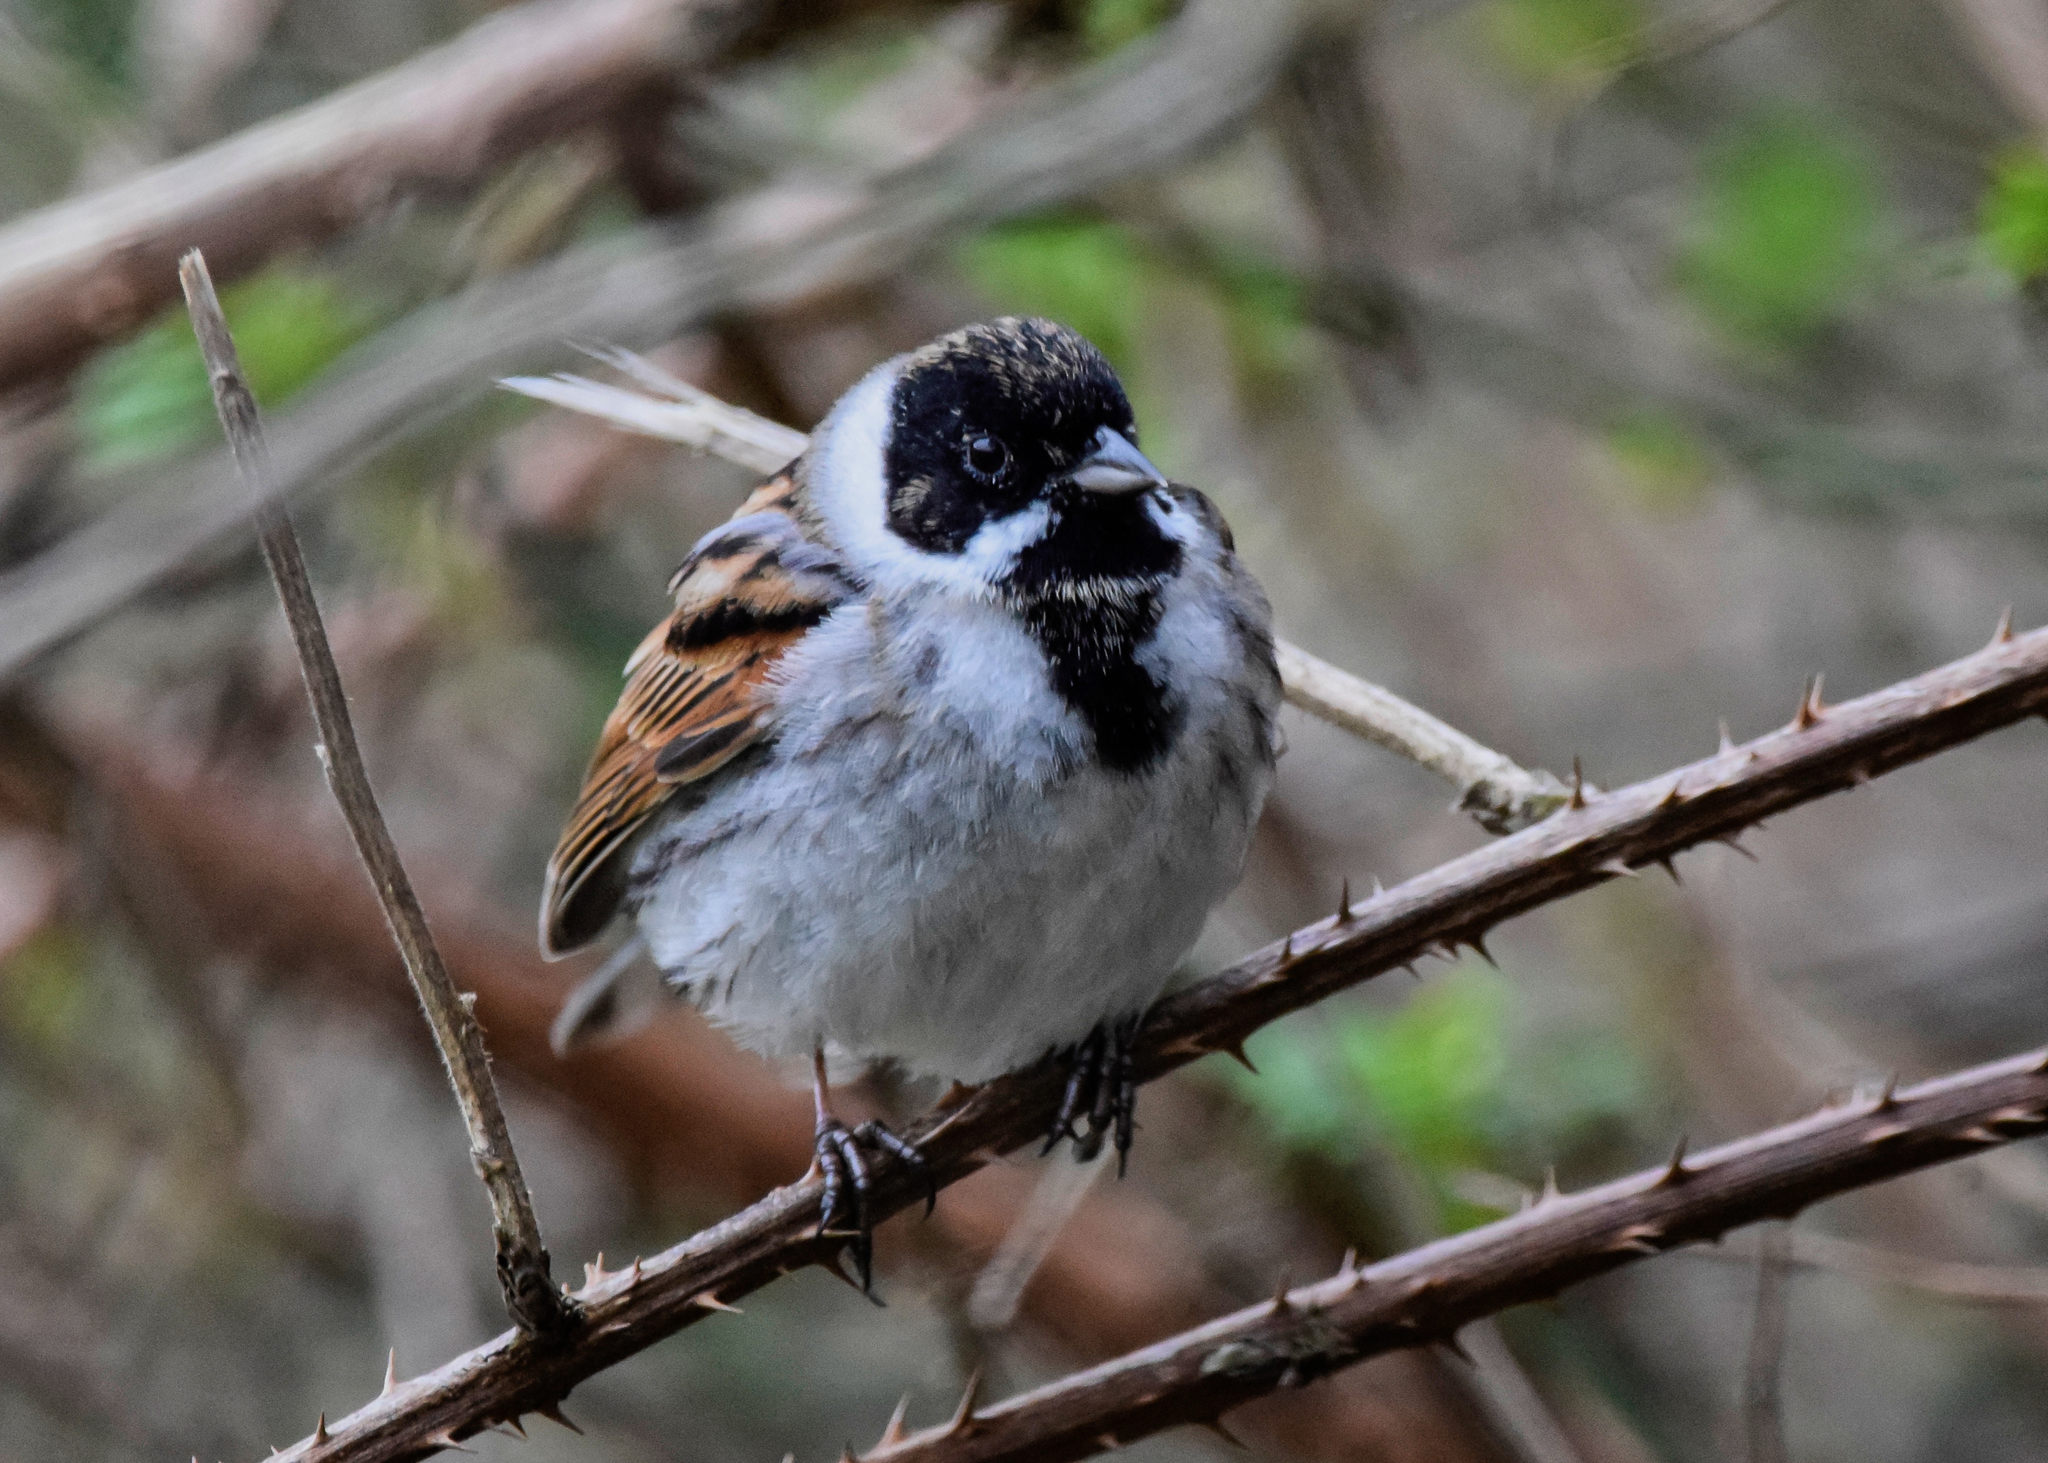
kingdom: Animalia
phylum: Chordata
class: Aves
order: Passeriformes
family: Emberizidae
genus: Emberiza
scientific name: Emberiza schoeniclus
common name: Reed bunting
